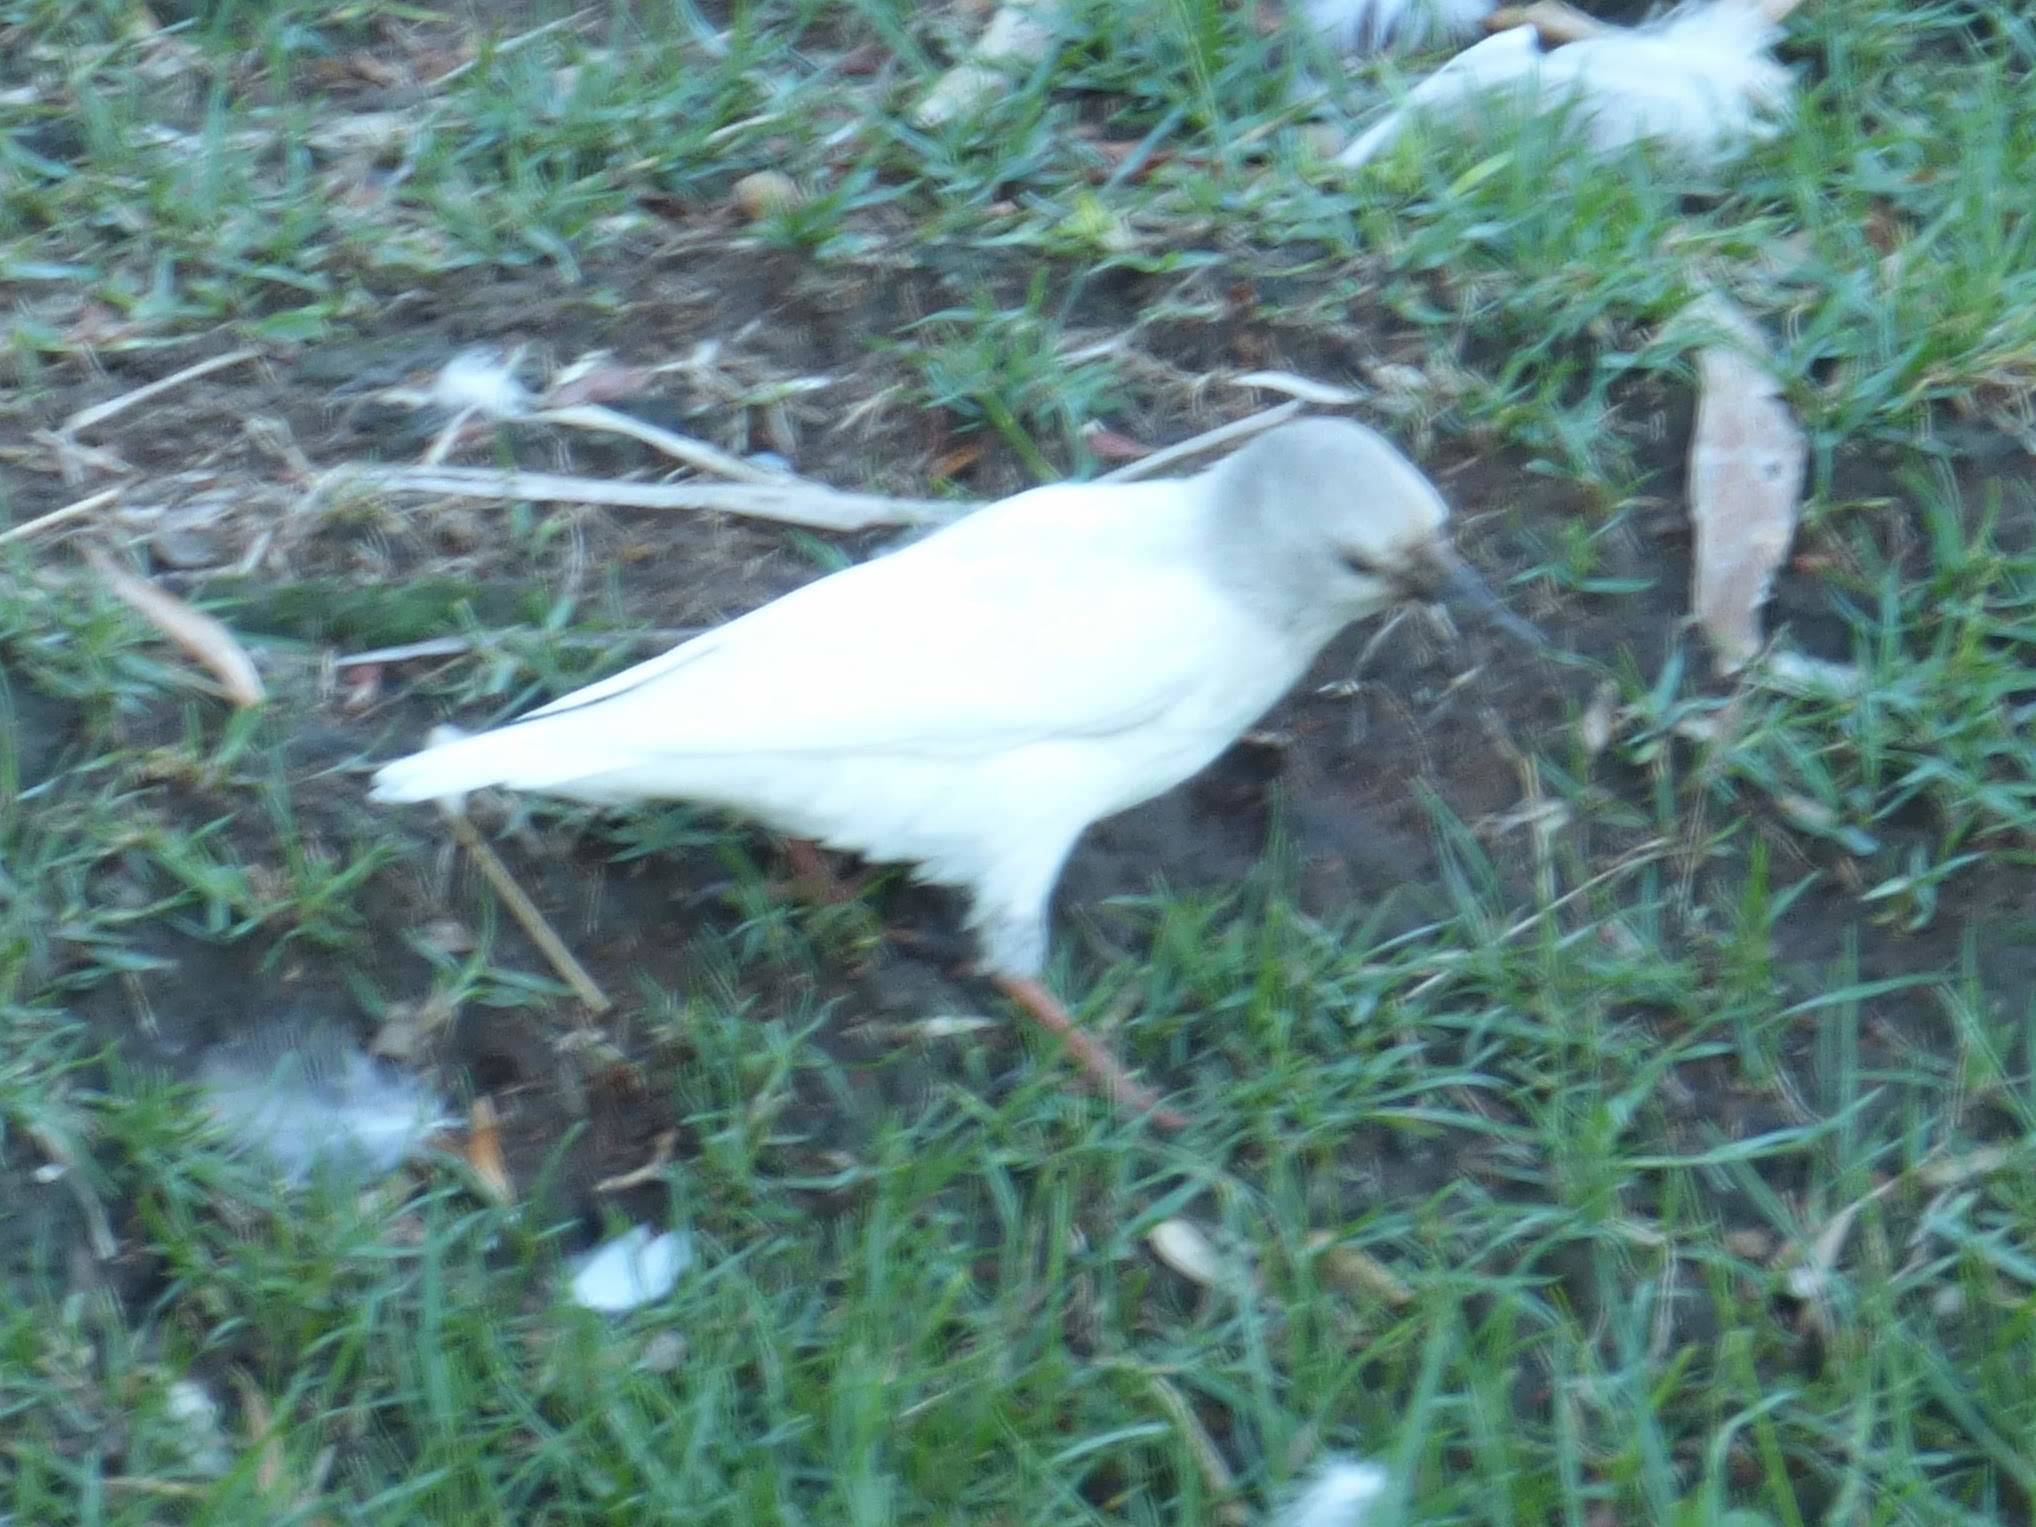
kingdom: Animalia
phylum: Chordata
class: Aves
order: Passeriformes
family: Sturnidae
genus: Sturnus
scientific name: Sturnus vulgaris
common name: Common starling
